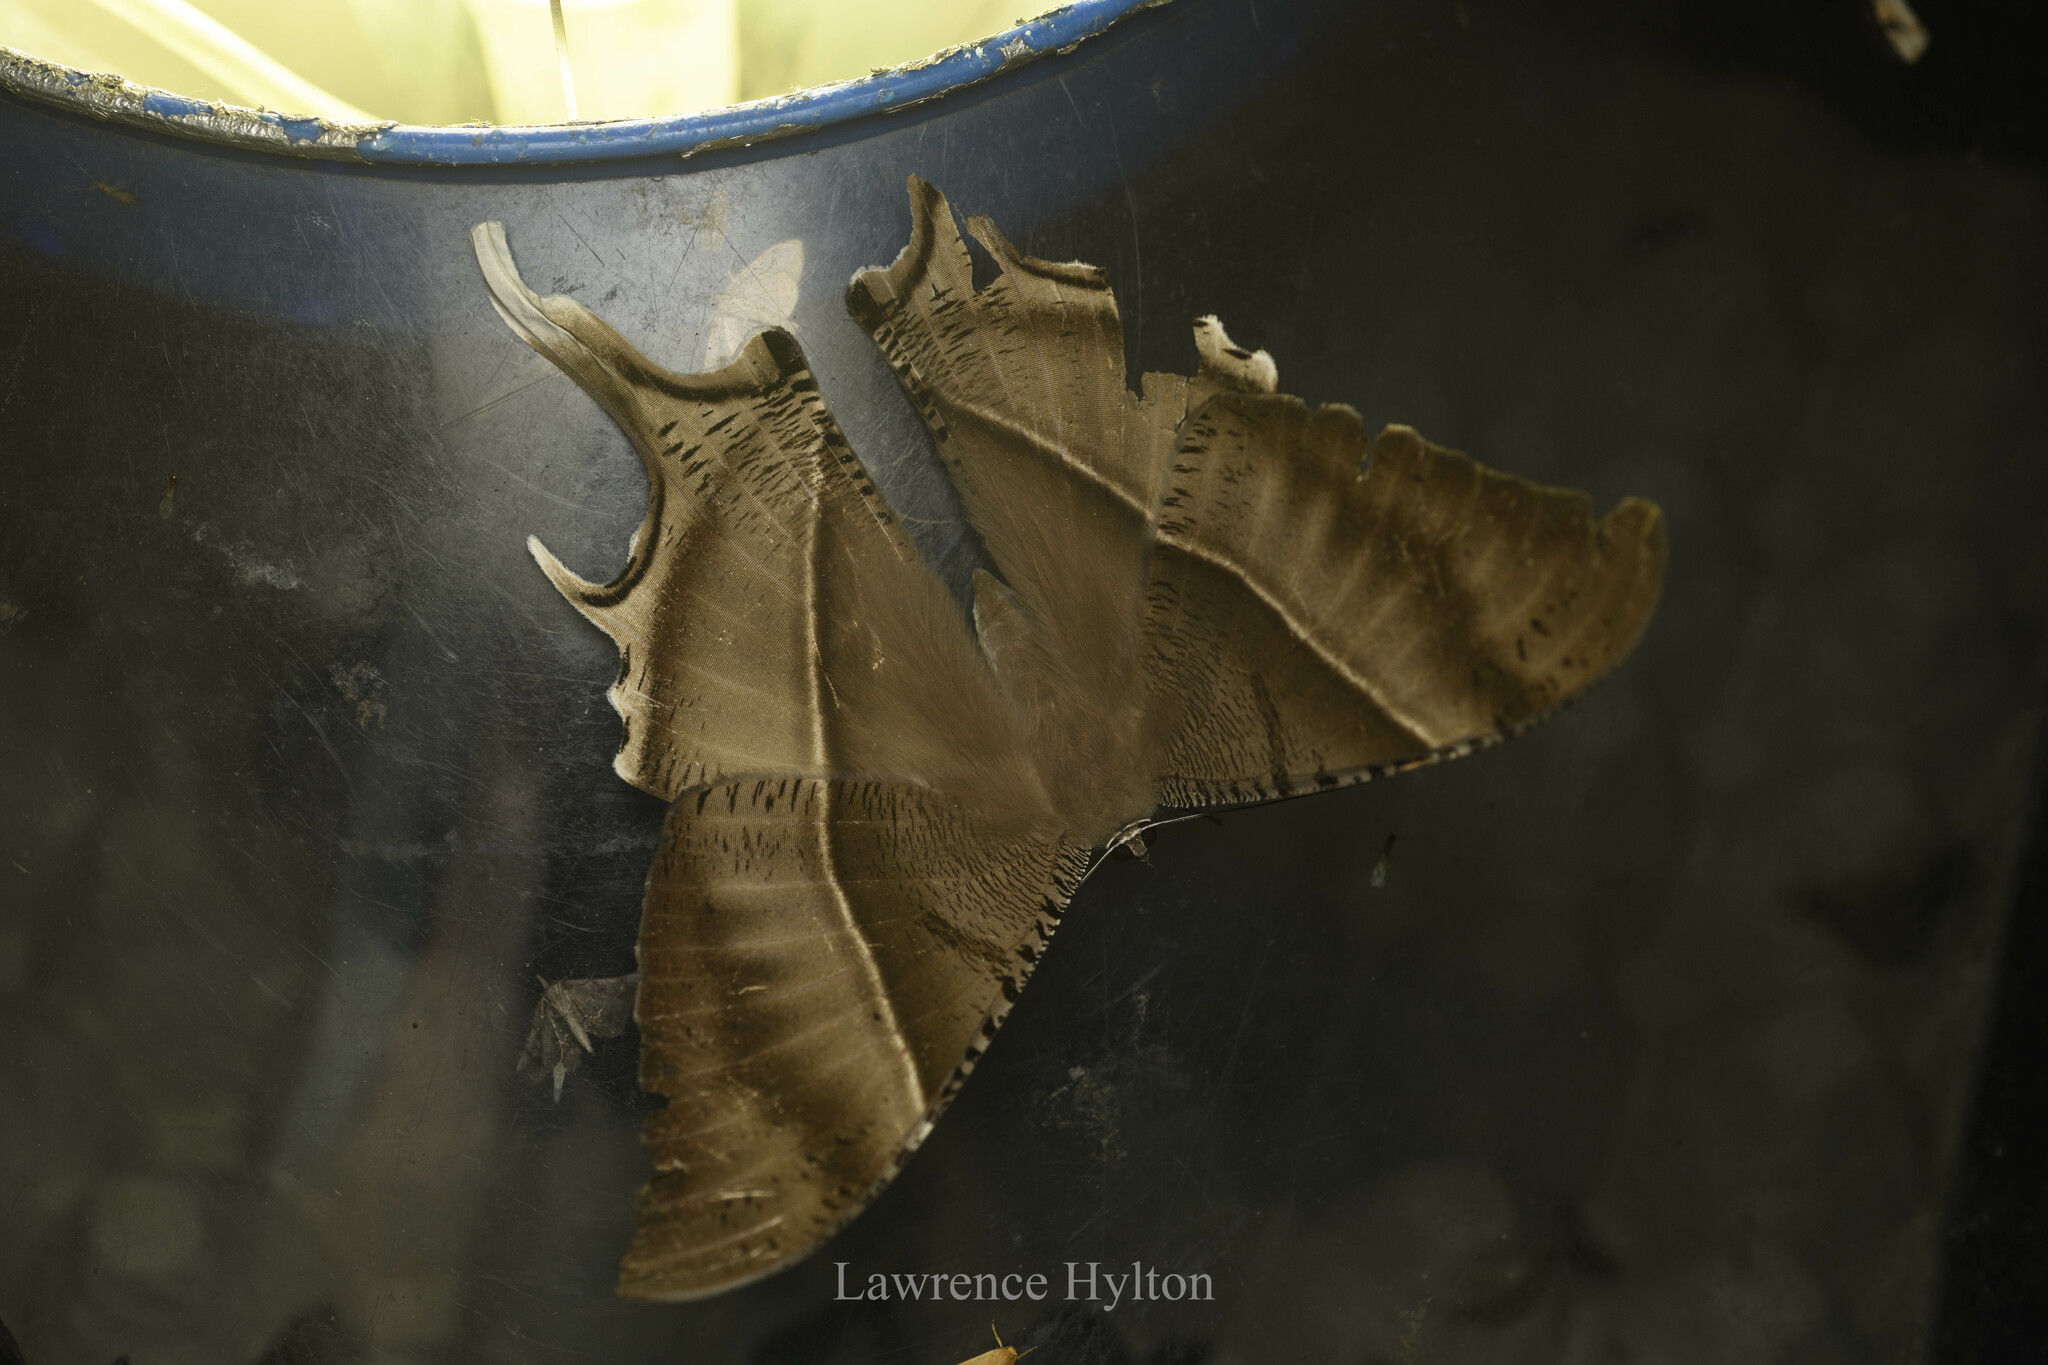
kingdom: Animalia
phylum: Arthropoda
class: Insecta
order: Lepidoptera
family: Uraniidae
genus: Lyssa
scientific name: Lyssa zampa
